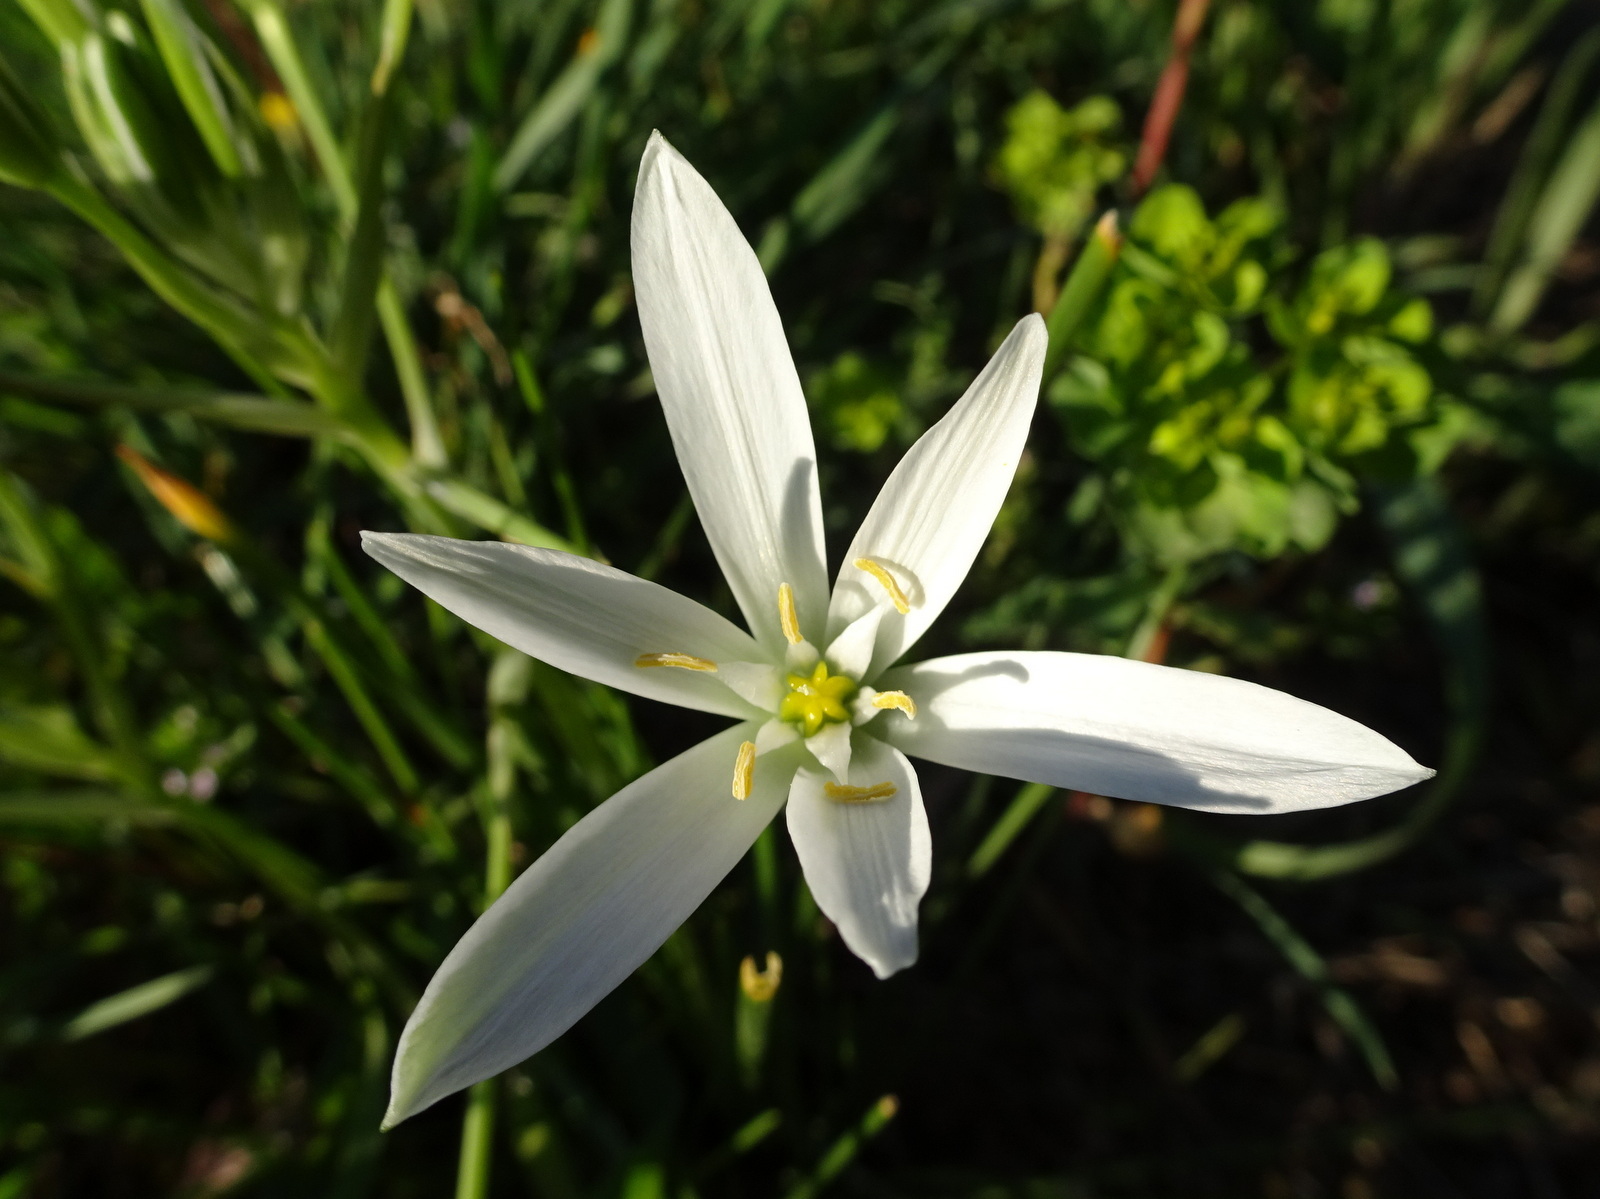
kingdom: Plantae
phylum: Tracheophyta
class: Liliopsida
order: Asparagales
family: Asparagaceae
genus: Ornithogalum
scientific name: Ornithogalum umbellatum
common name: Garden star-of-bethlehem
